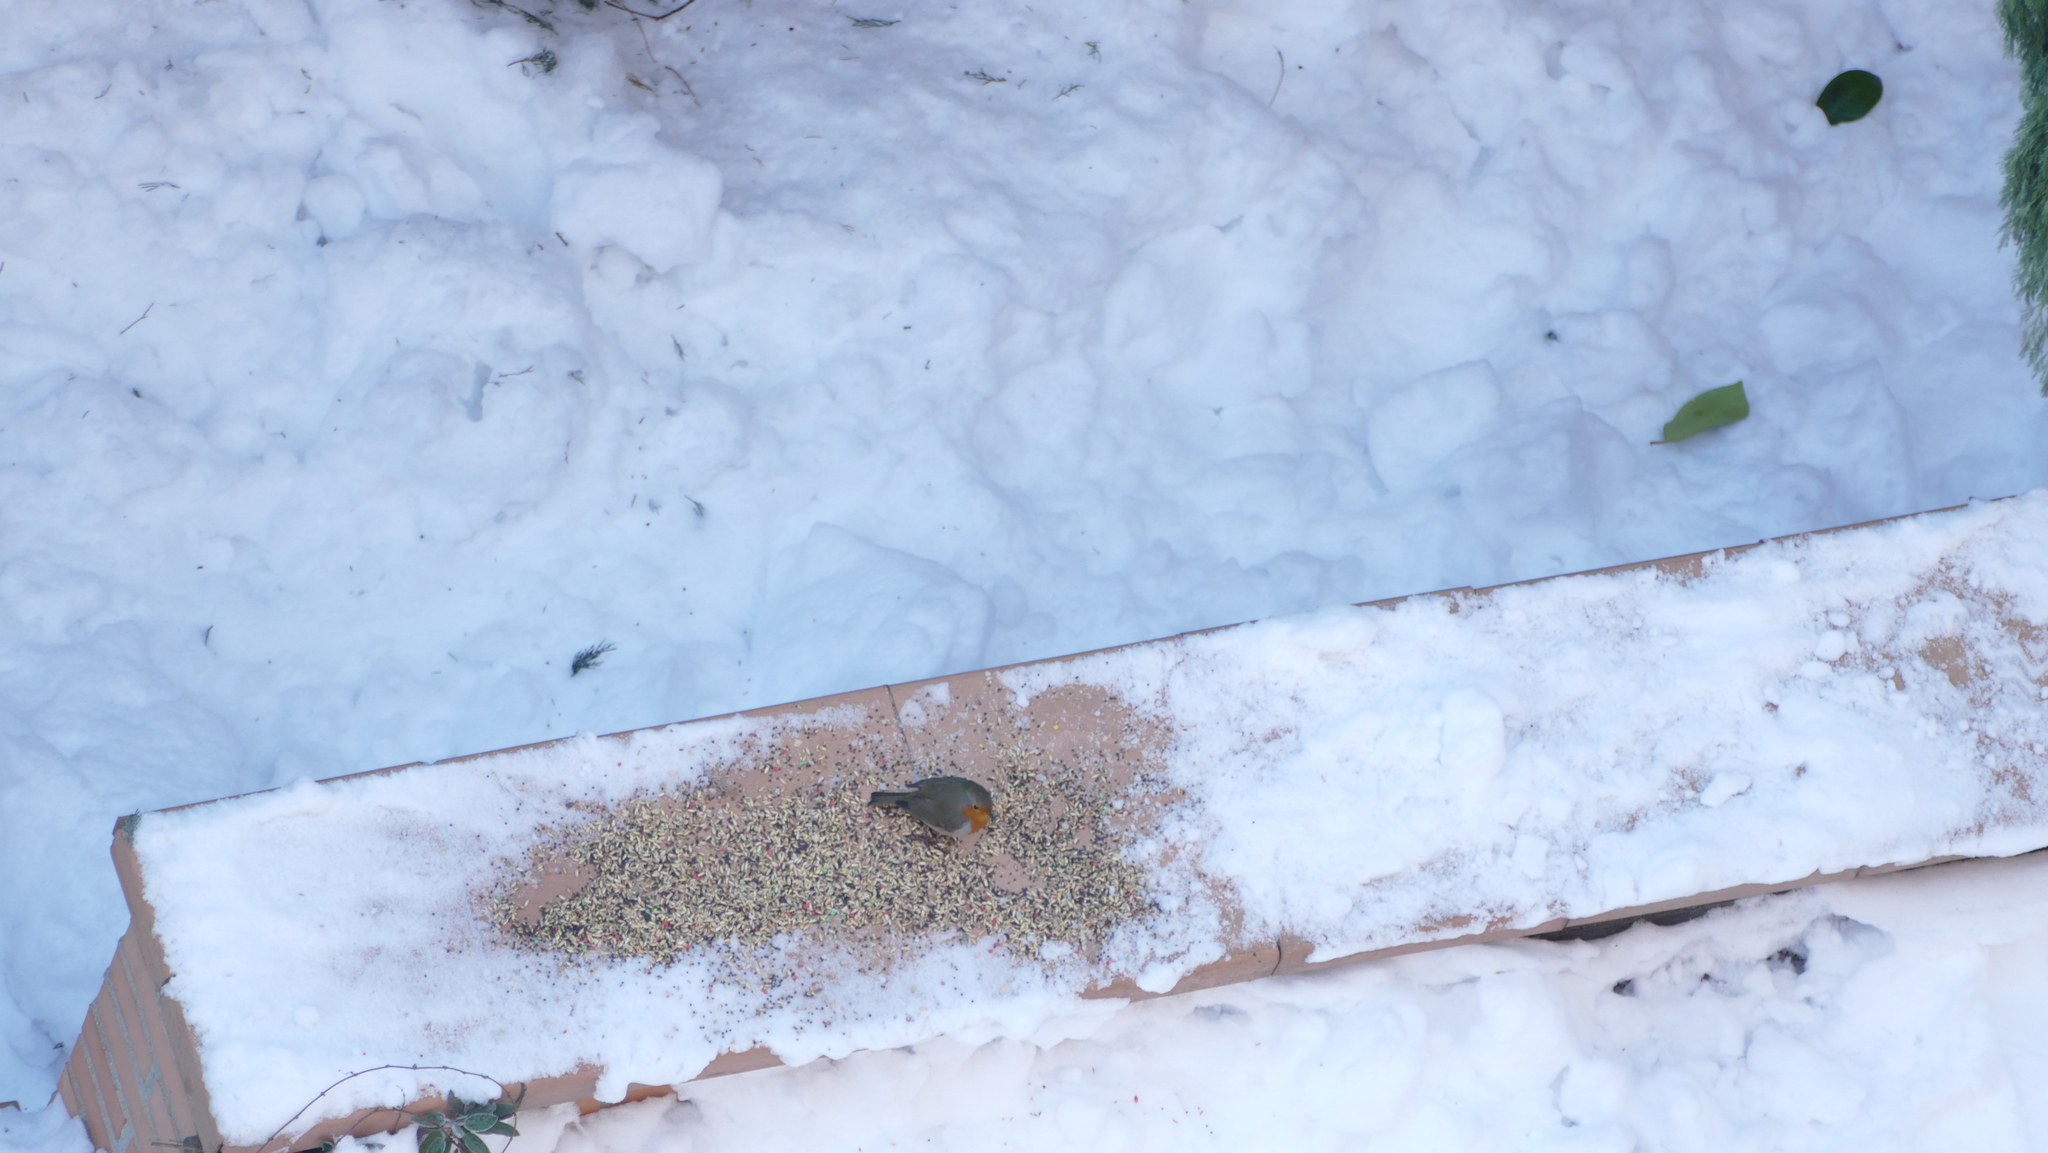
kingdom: Animalia
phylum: Chordata
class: Aves
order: Passeriformes
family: Muscicapidae
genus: Erithacus
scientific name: Erithacus rubecula
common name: European robin
